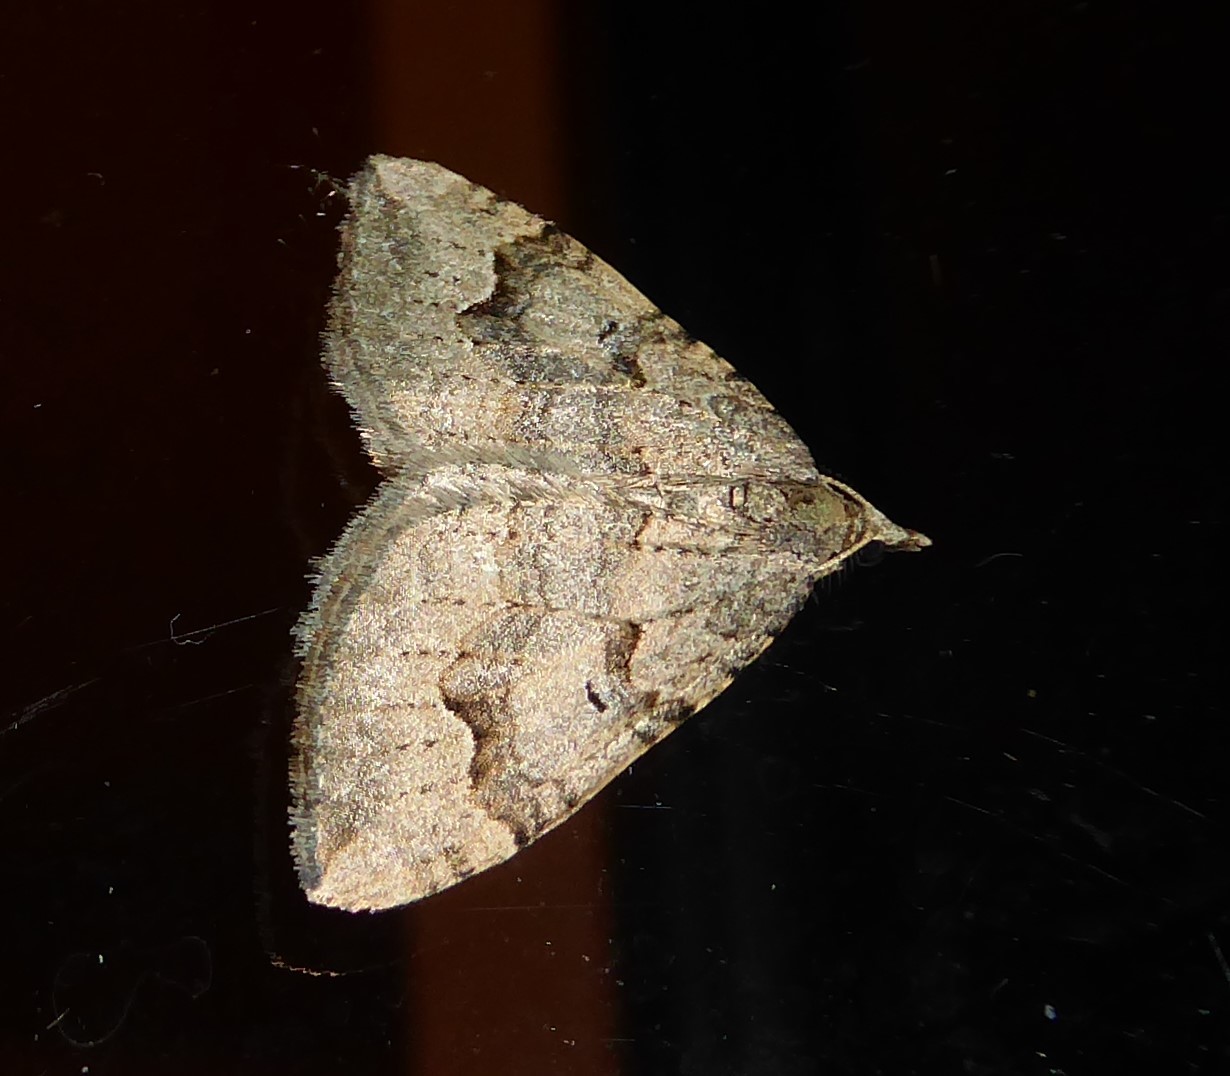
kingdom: Animalia
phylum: Arthropoda
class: Insecta
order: Lepidoptera
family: Geometridae
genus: Epyaxa
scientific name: Epyaxa rosearia
